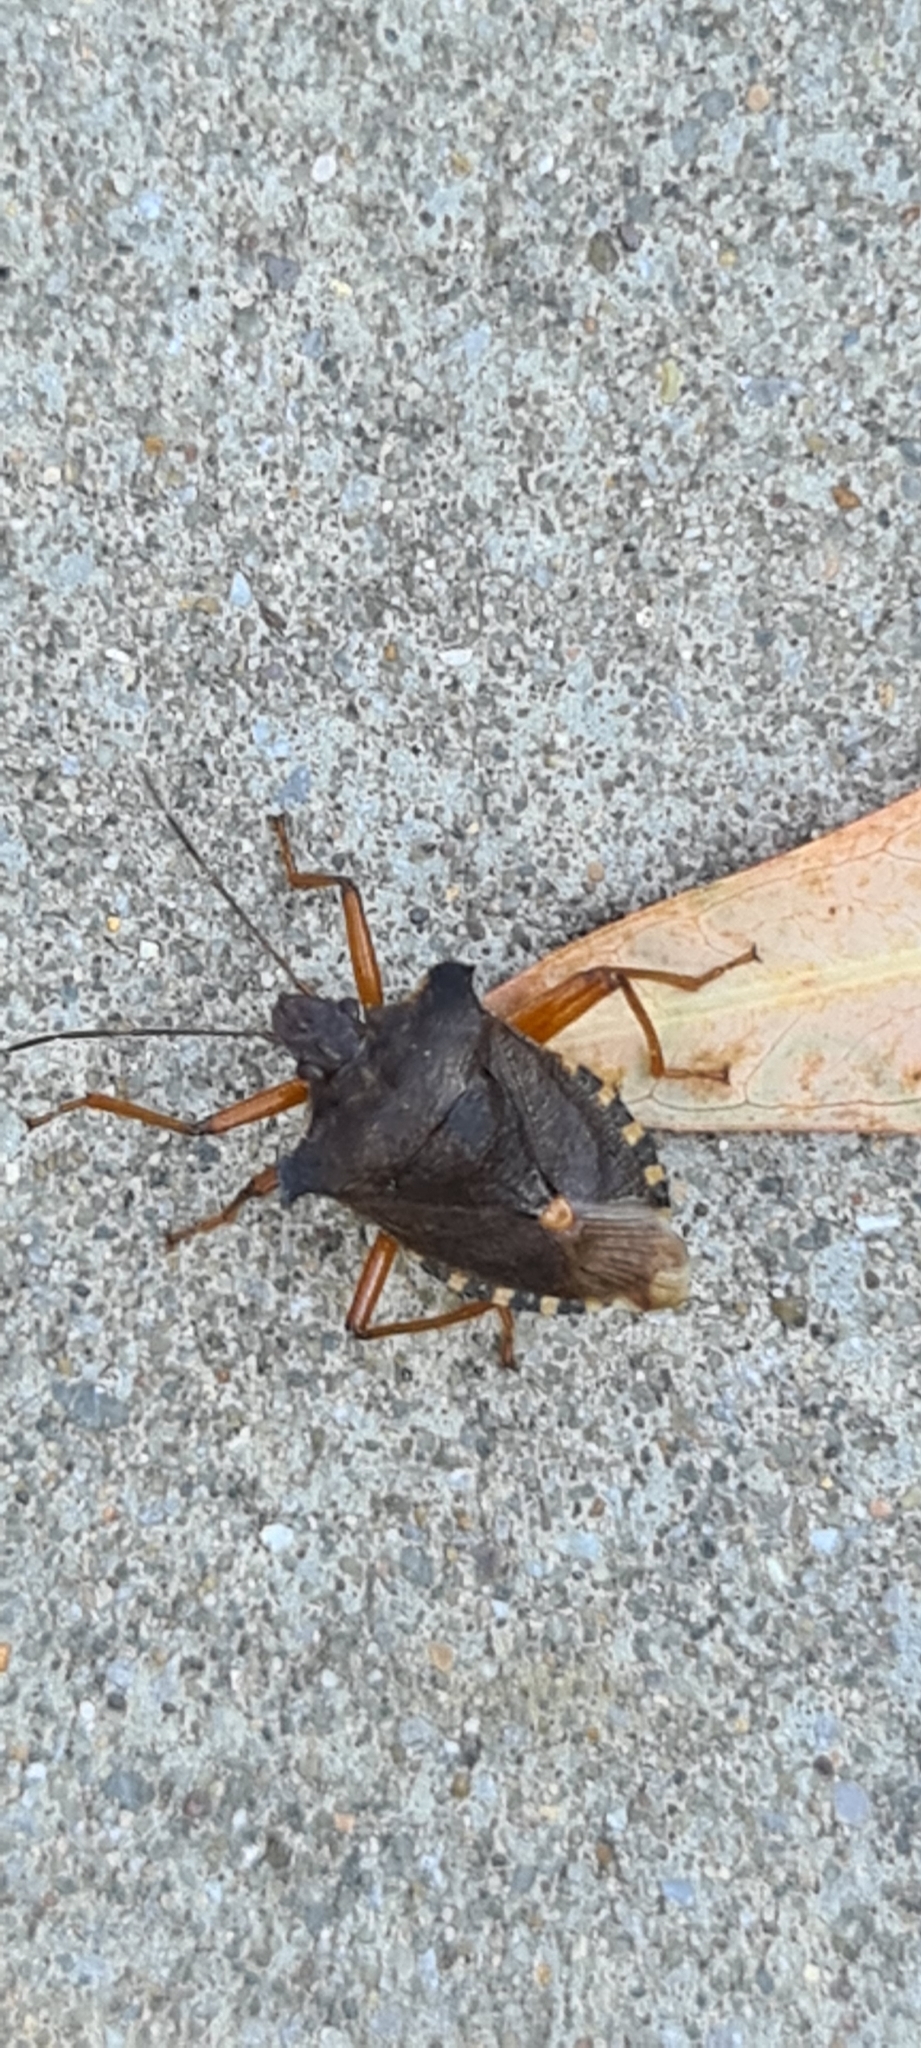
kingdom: Animalia
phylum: Arthropoda
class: Insecta
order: Hemiptera
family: Pentatomidae
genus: Pentatoma
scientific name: Pentatoma rufipes
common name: Forest bug
